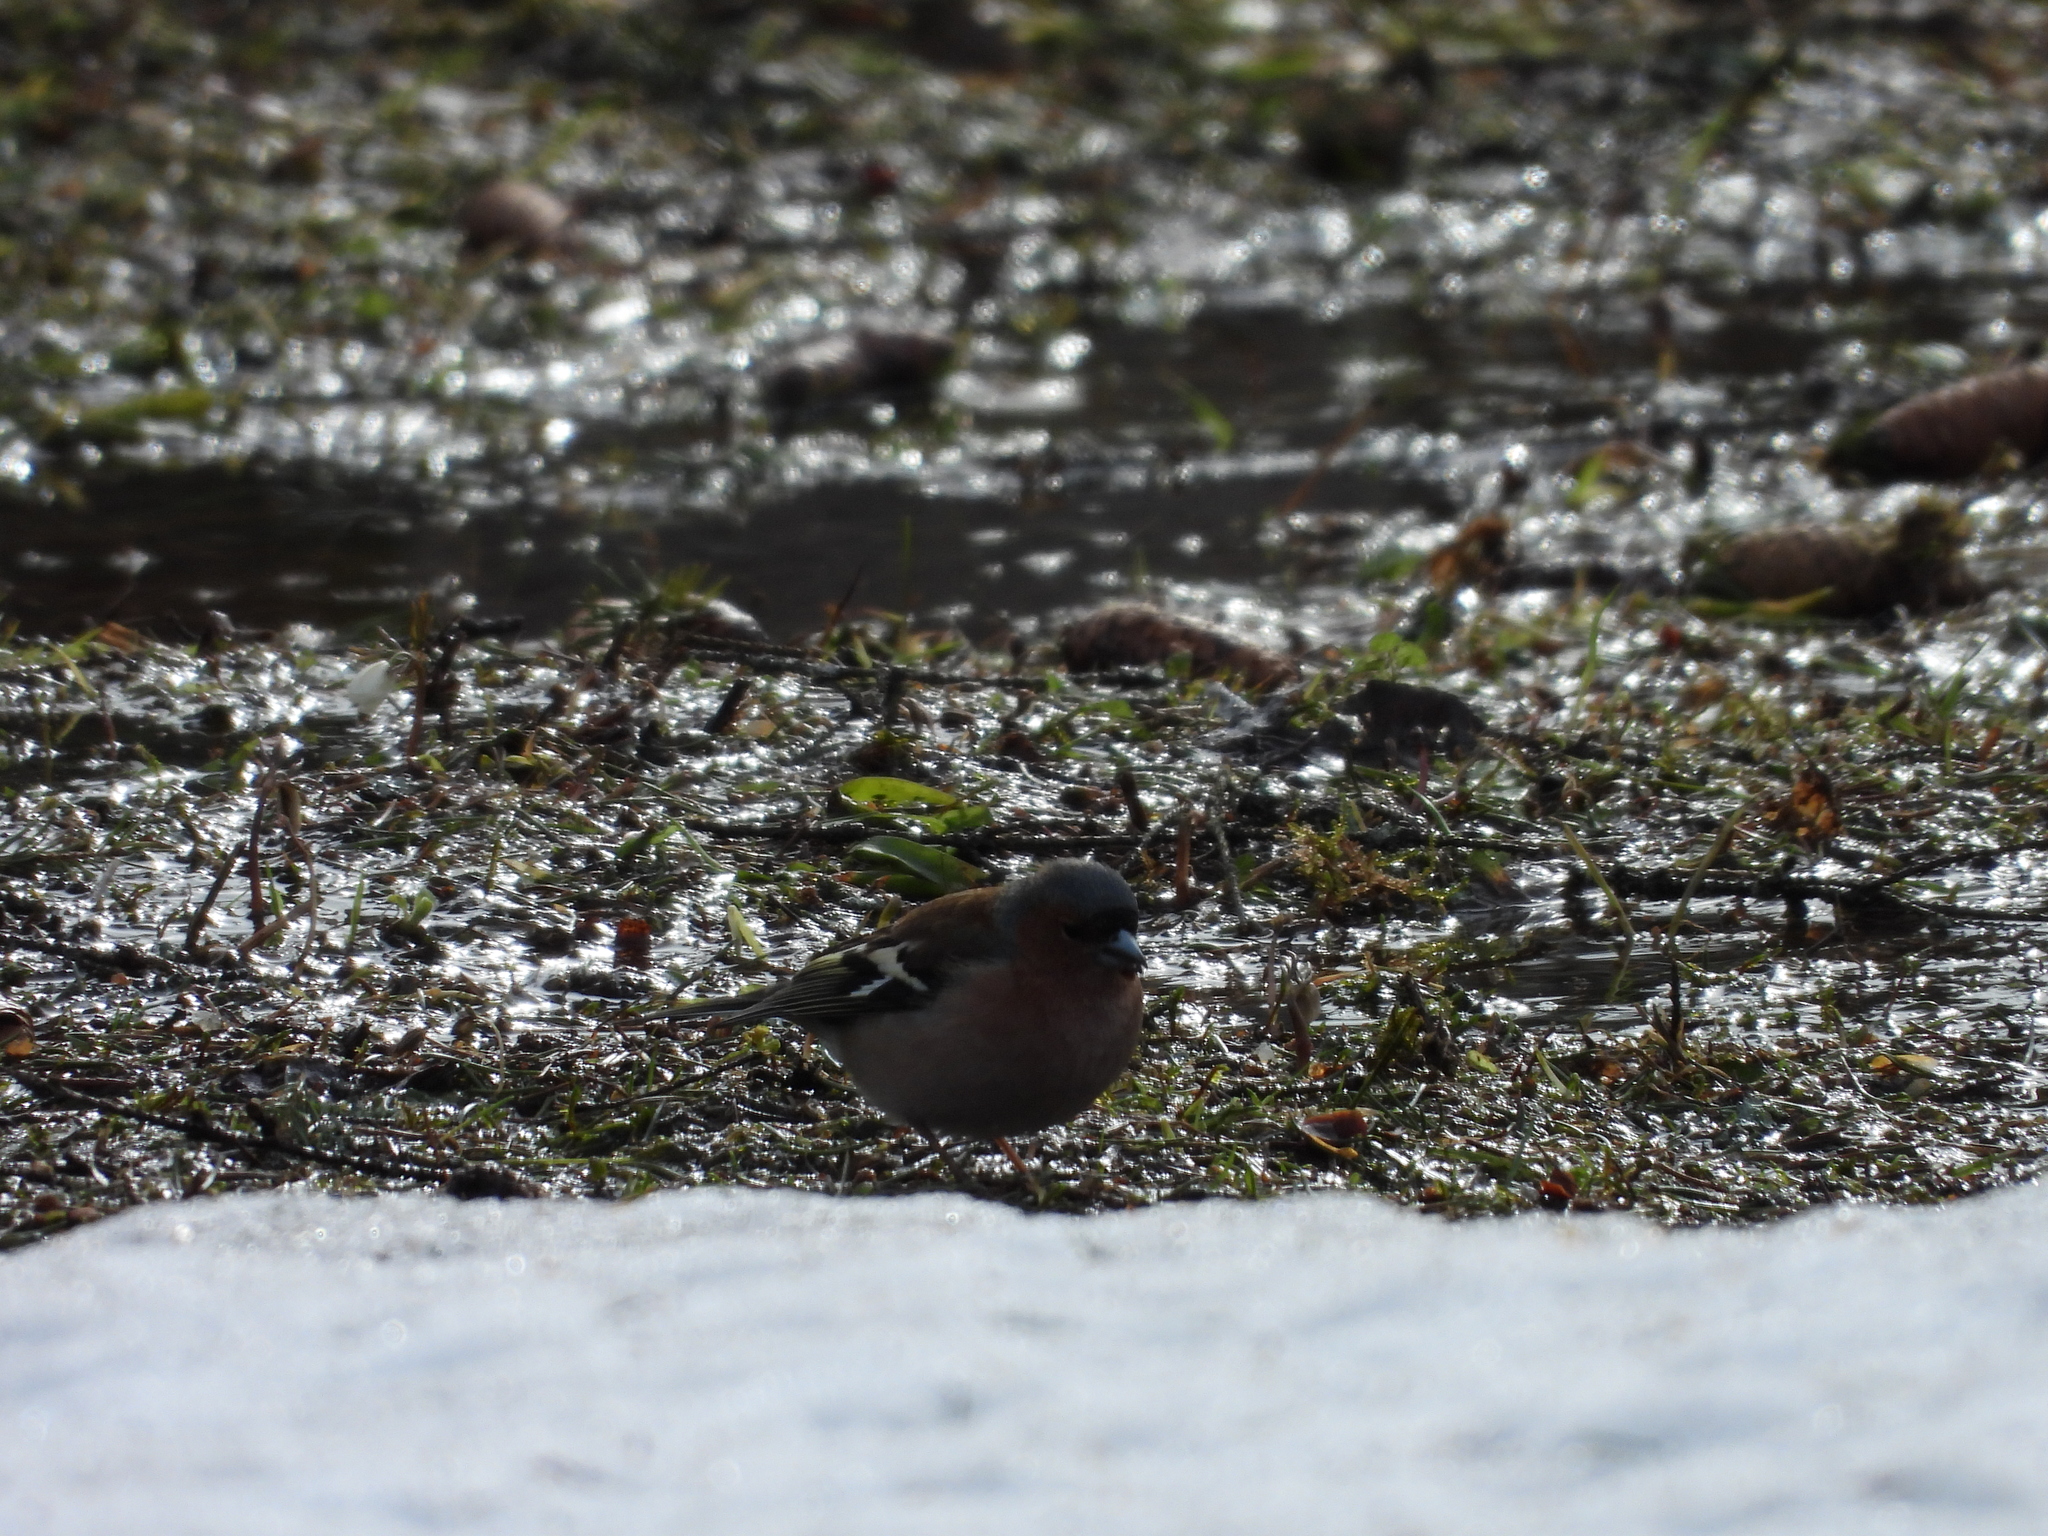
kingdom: Animalia
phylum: Chordata
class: Aves
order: Passeriformes
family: Fringillidae
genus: Fringilla
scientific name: Fringilla coelebs
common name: Common chaffinch
